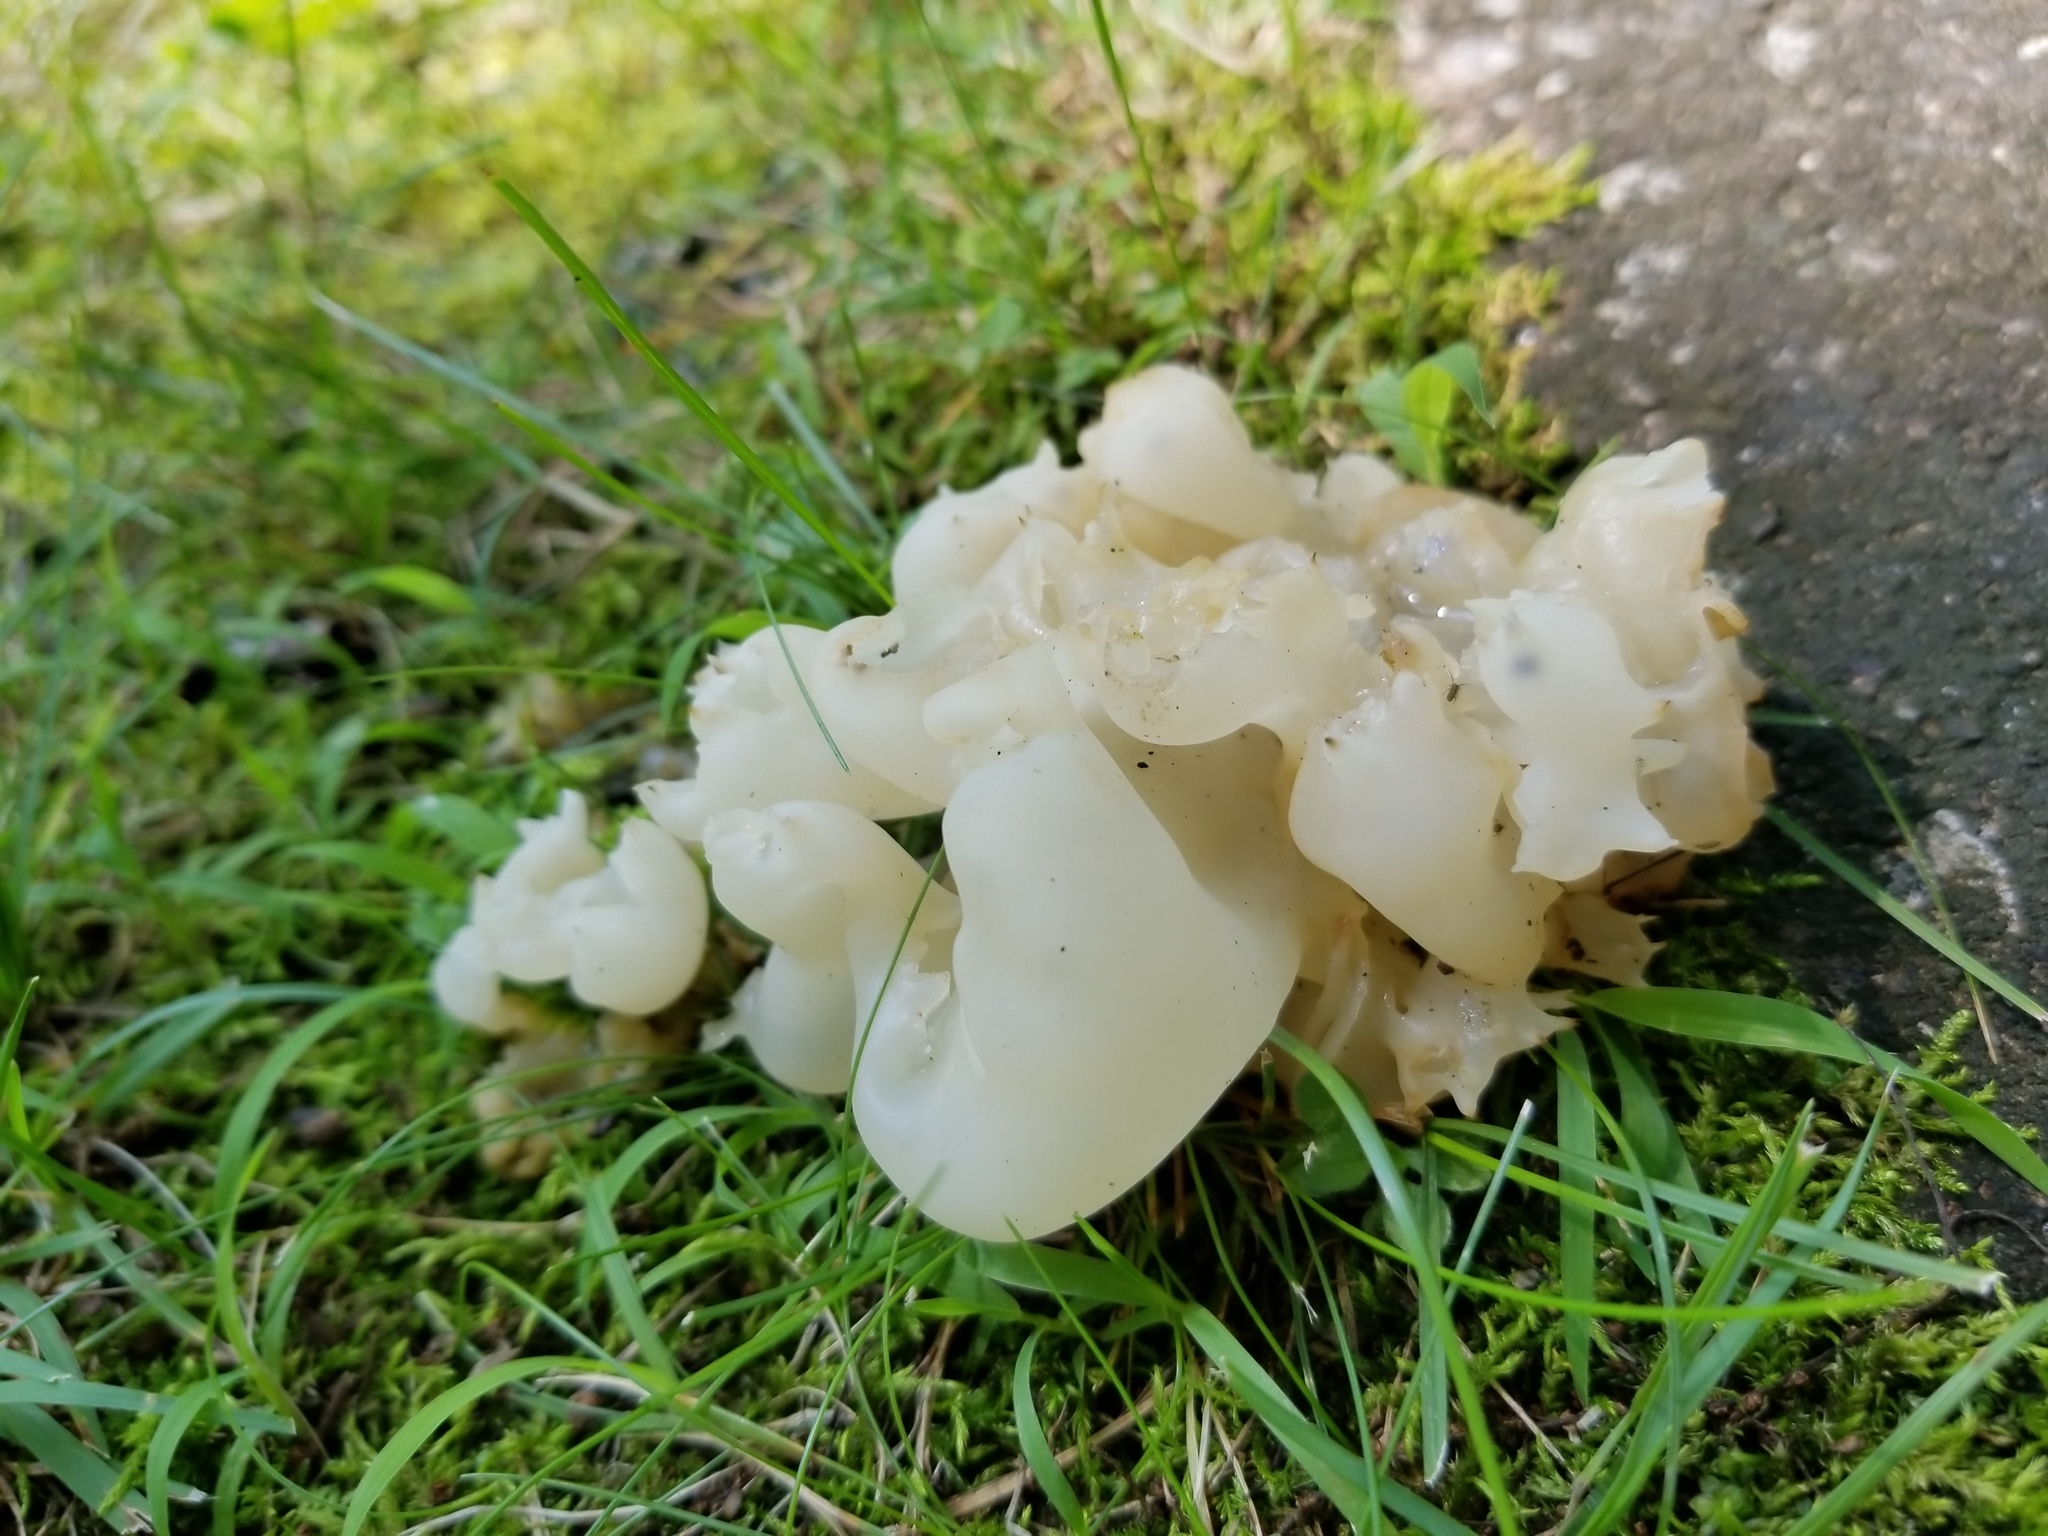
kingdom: Fungi
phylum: Basidiomycota
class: Agaricomycetes
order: Sebacinales
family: Sebacinaceae
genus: Sebacina
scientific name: Sebacina sparassoidea
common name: White coral jelly fungus
